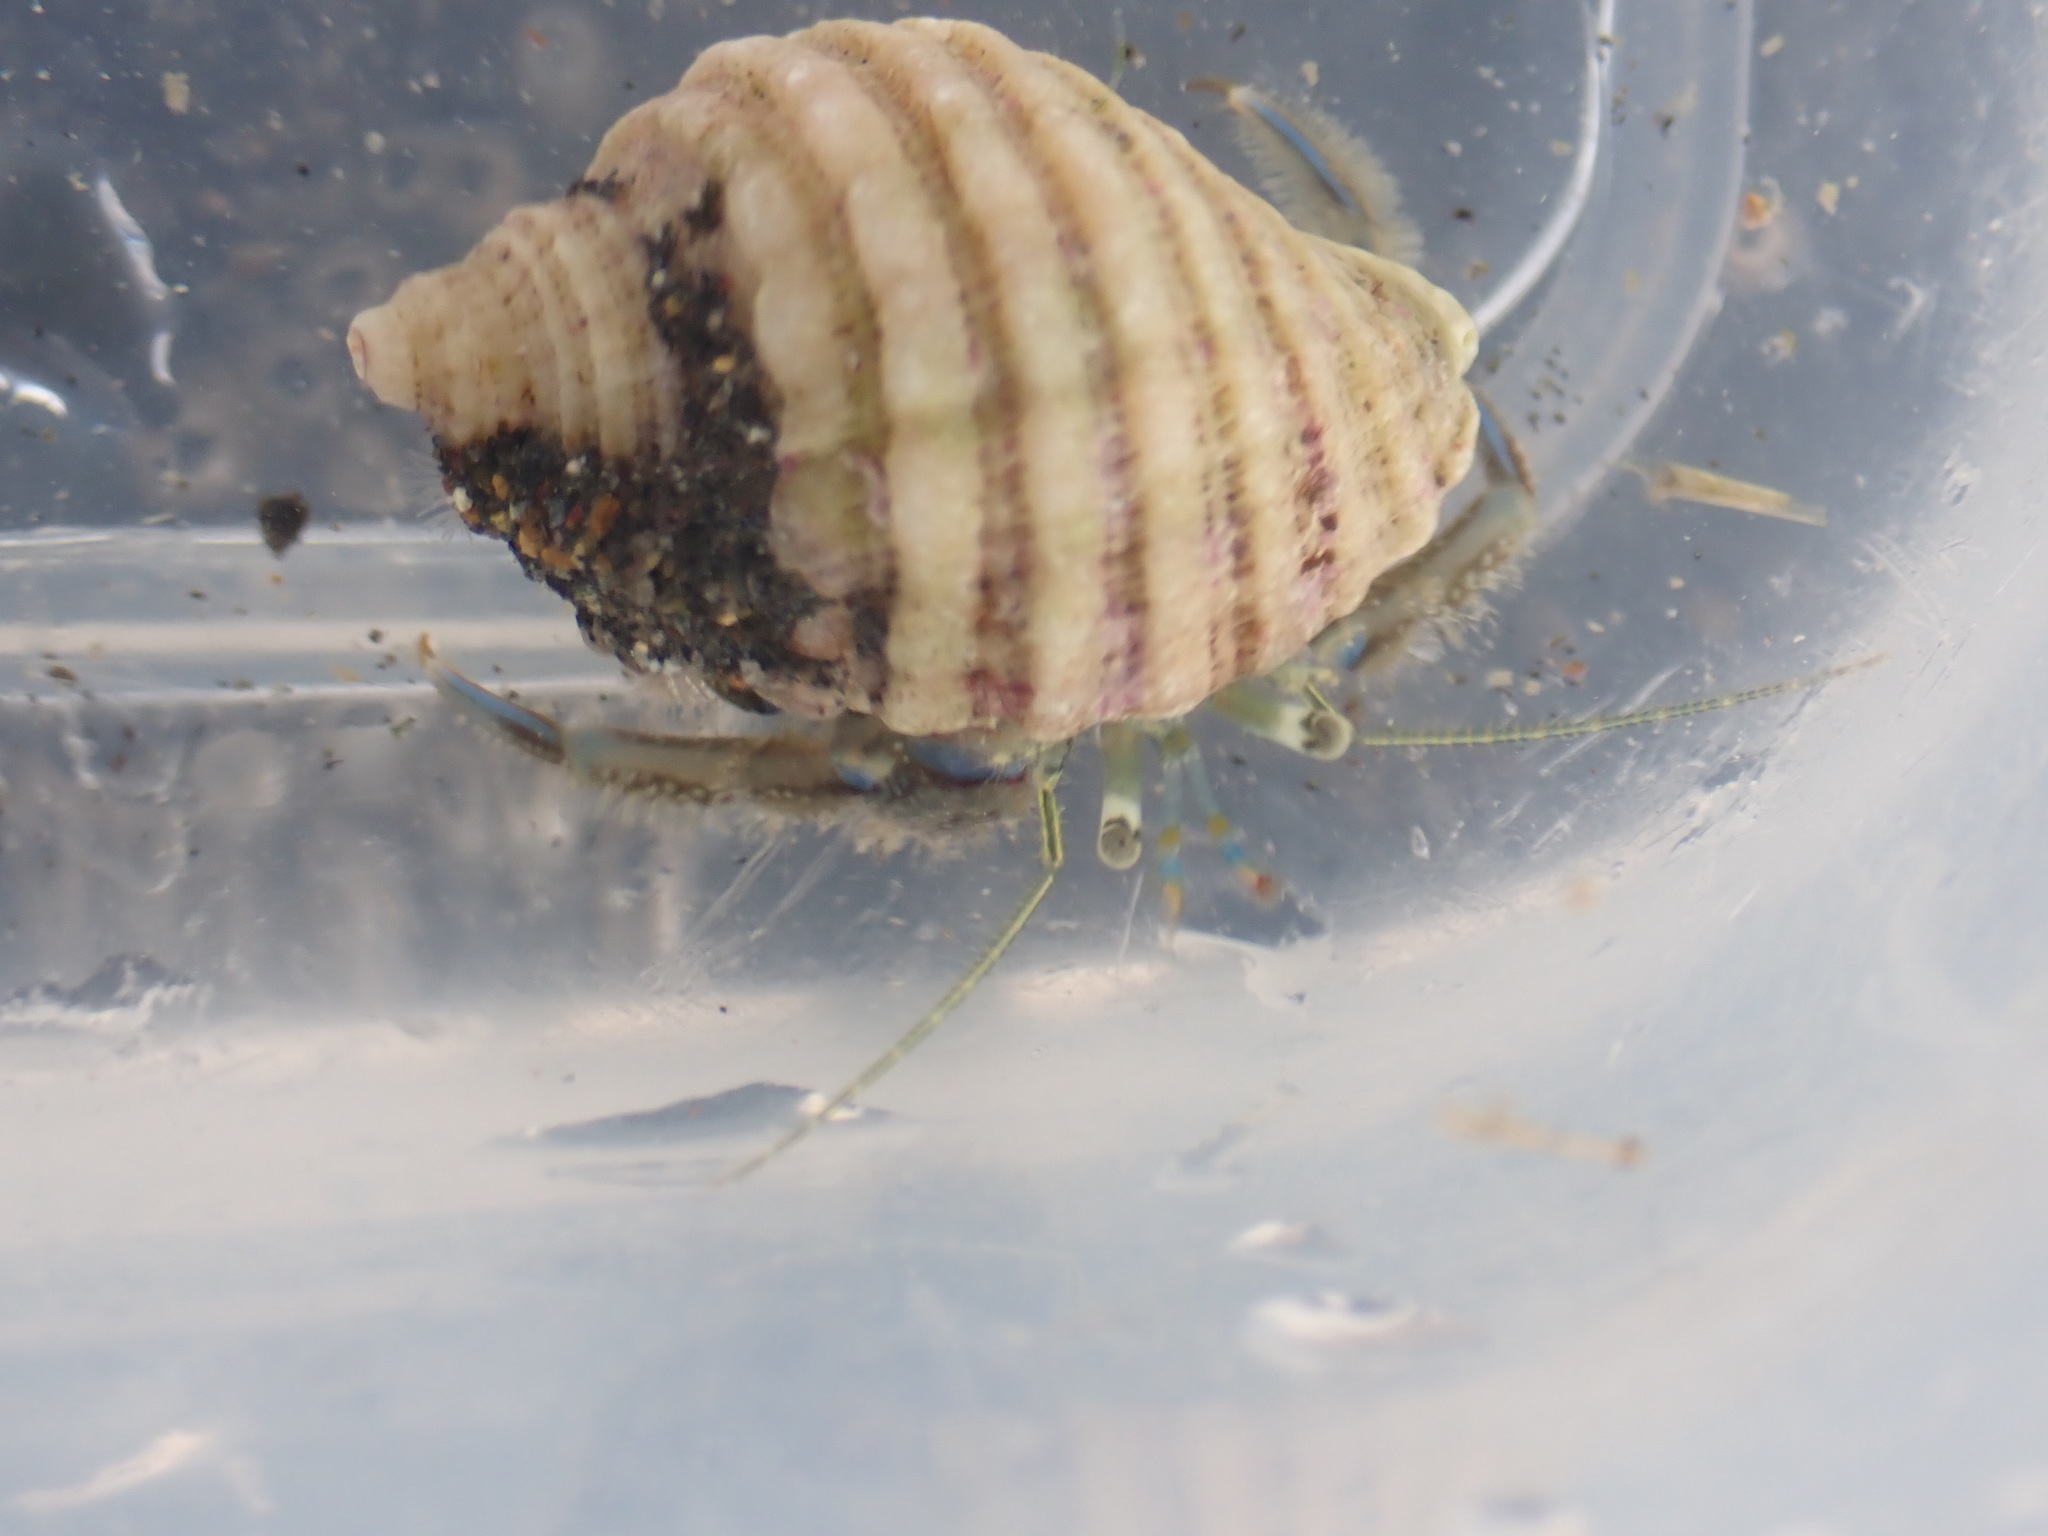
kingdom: Animalia
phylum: Arthropoda
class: Malacostraca
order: Decapoda
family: Paguridae
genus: Pagurus
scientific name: Pagurus novizealandiae
